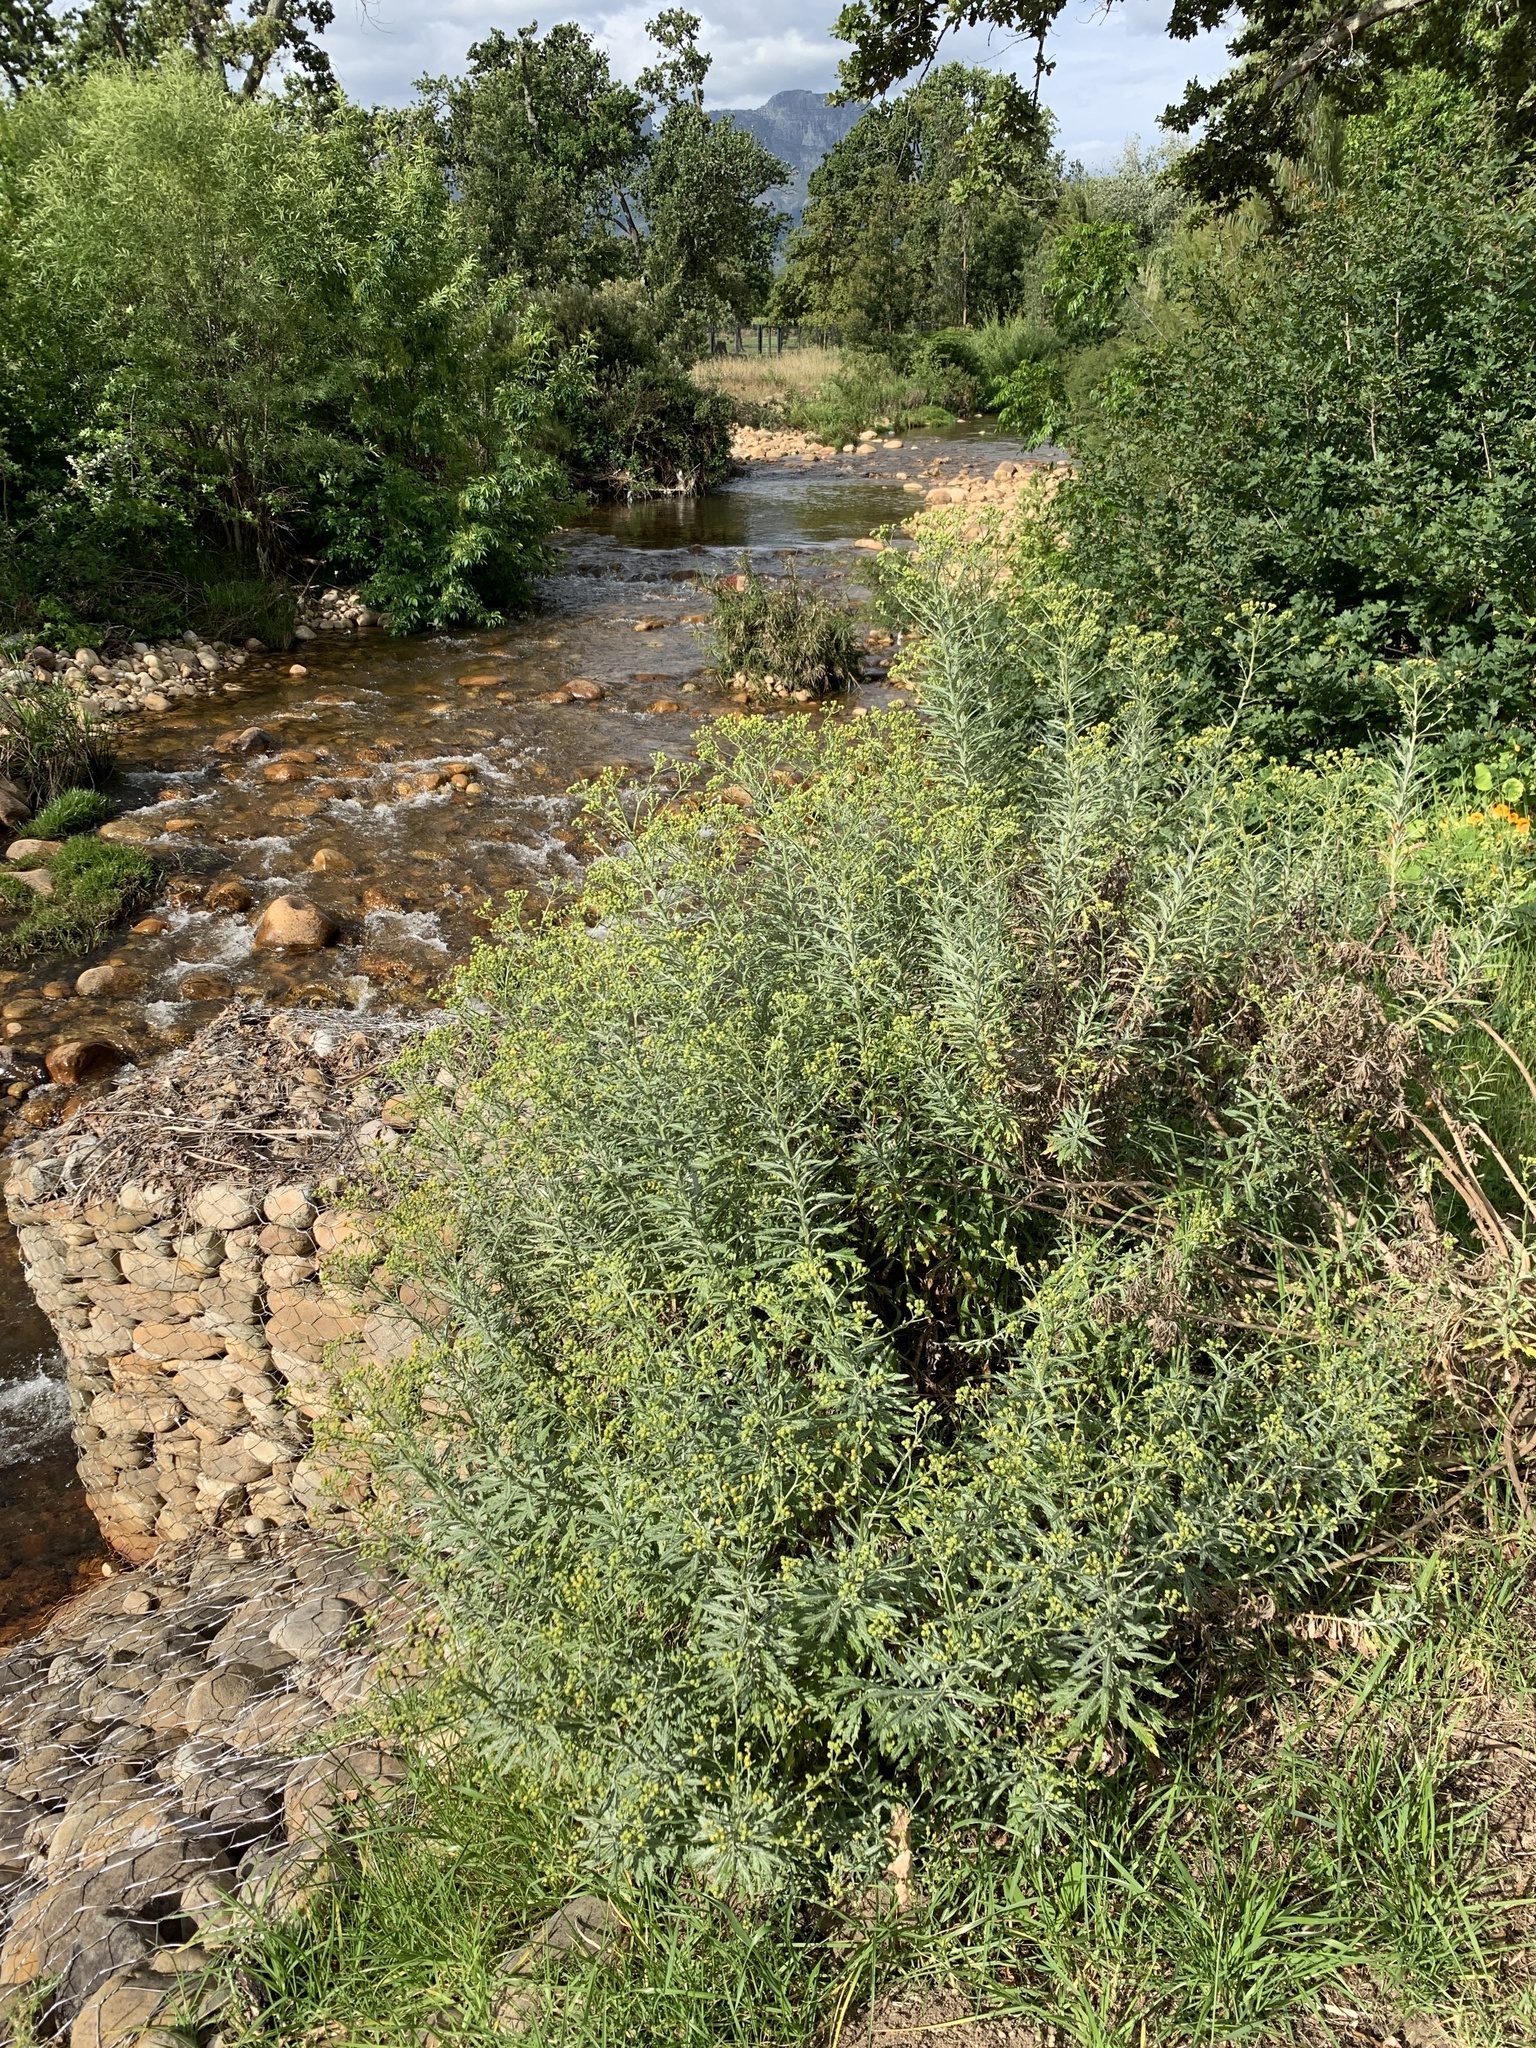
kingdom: Plantae
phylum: Tracheophyta
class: Magnoliopsida
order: Asterales
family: Asteraceae
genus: Senecio
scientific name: Senecio pterophorus
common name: Shoddy ragwort
